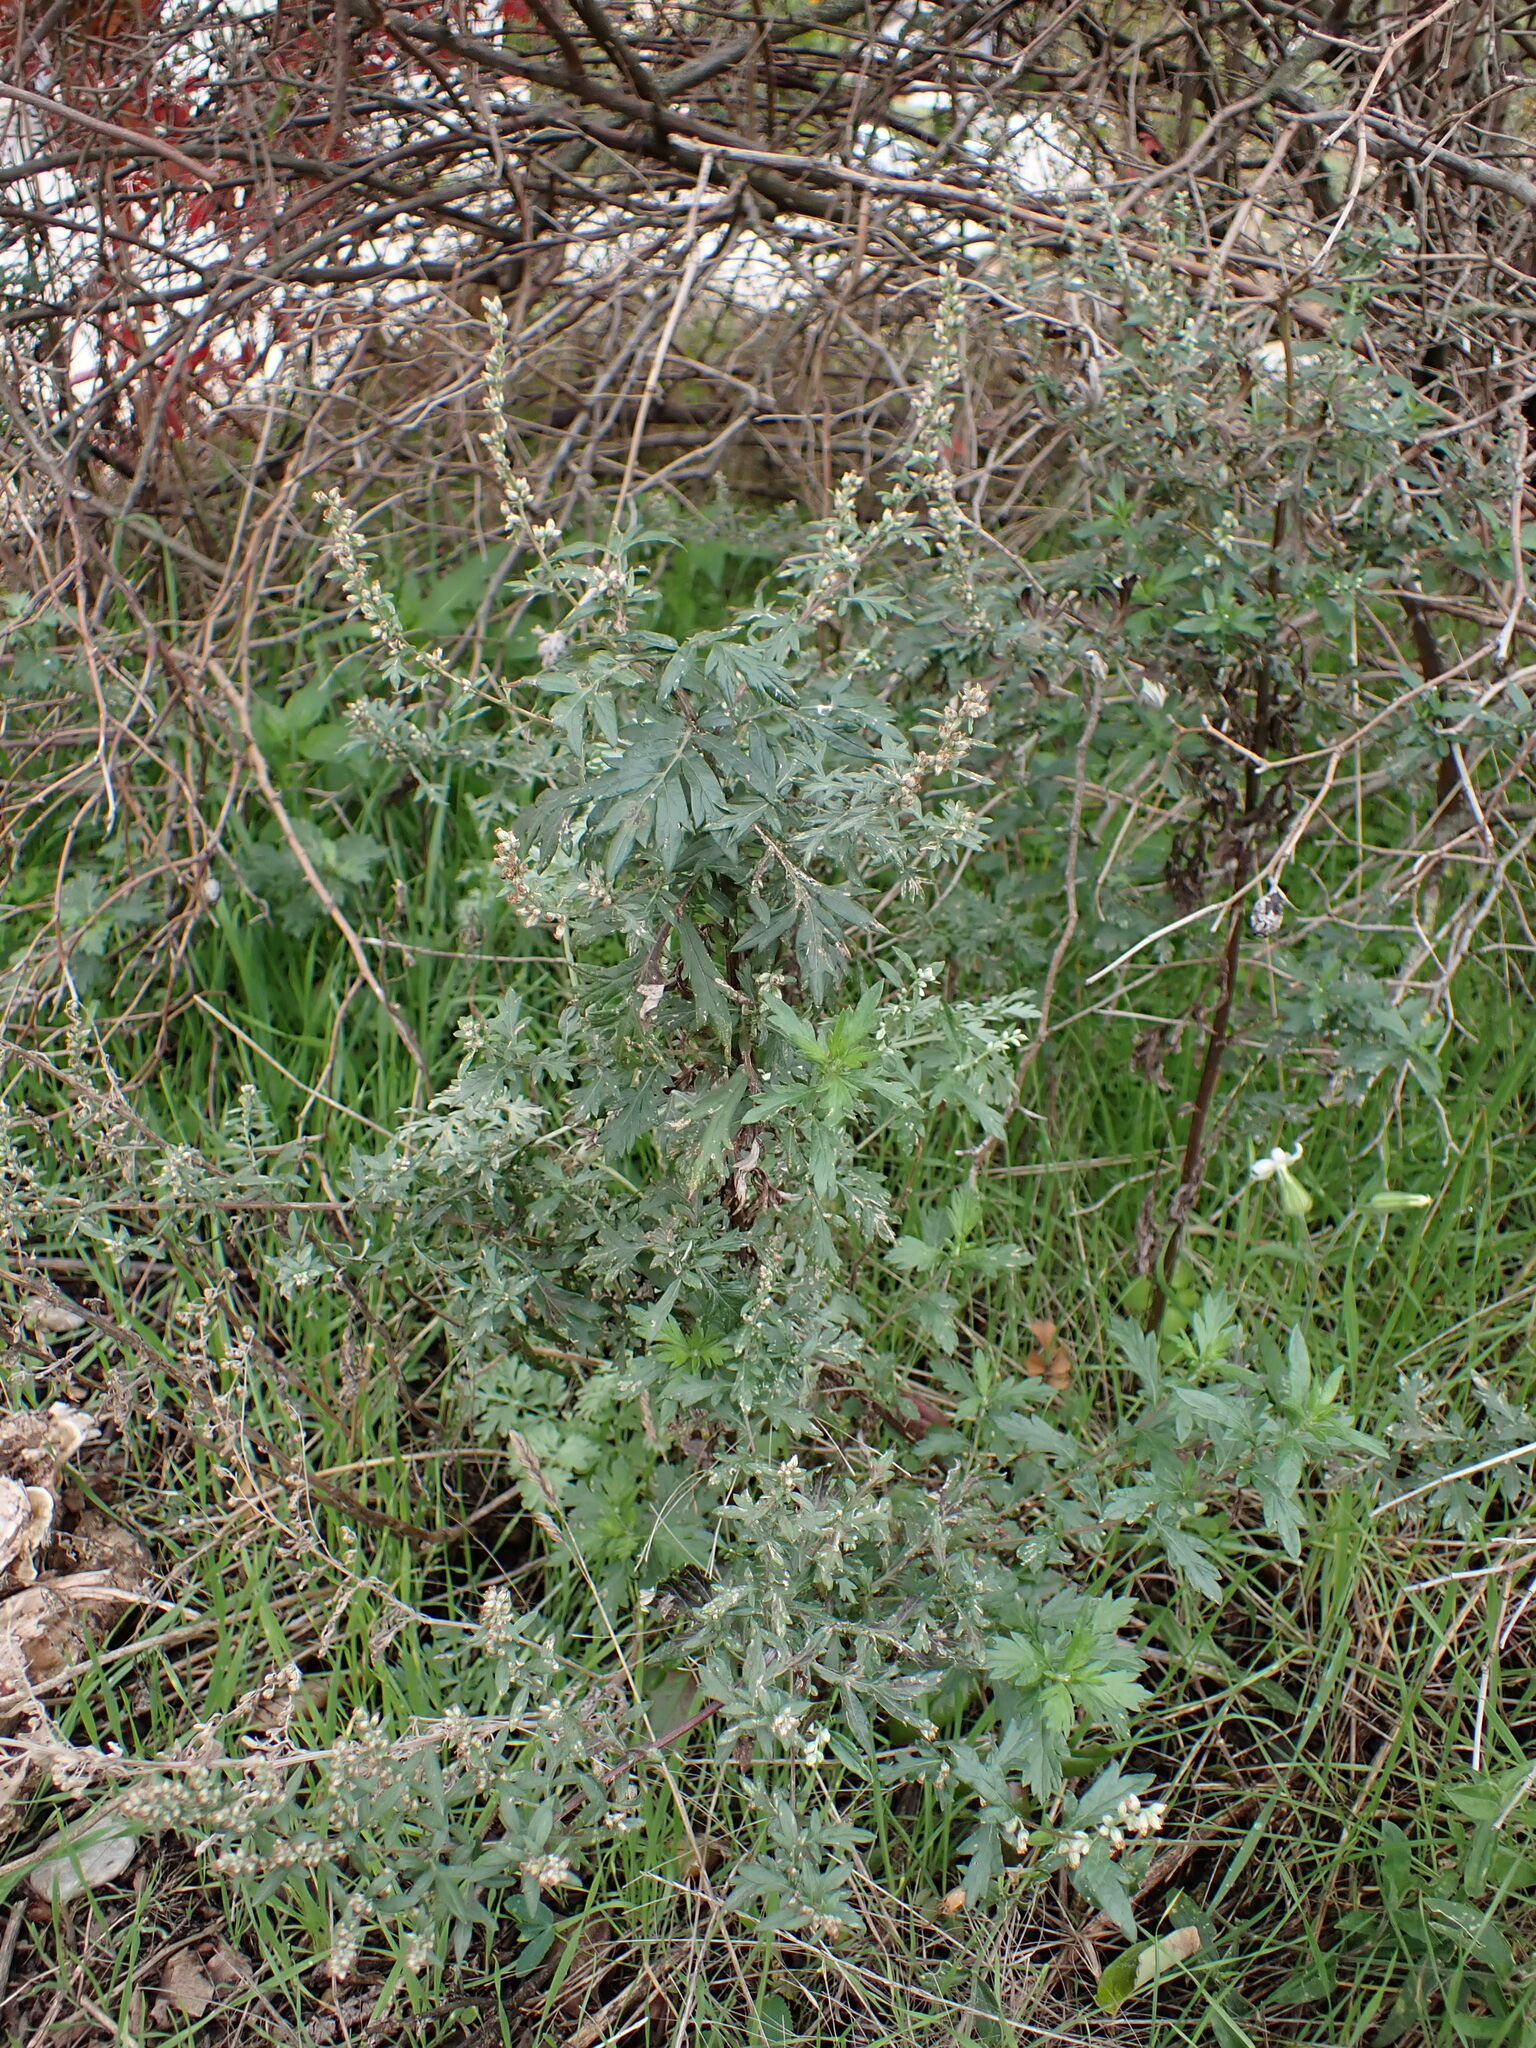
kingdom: Plantae
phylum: Tracheophyta
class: Magnoliopsida
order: Asterales
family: Asteraceae
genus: Artemisia
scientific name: Artemisia vulgaris
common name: Mugwort
